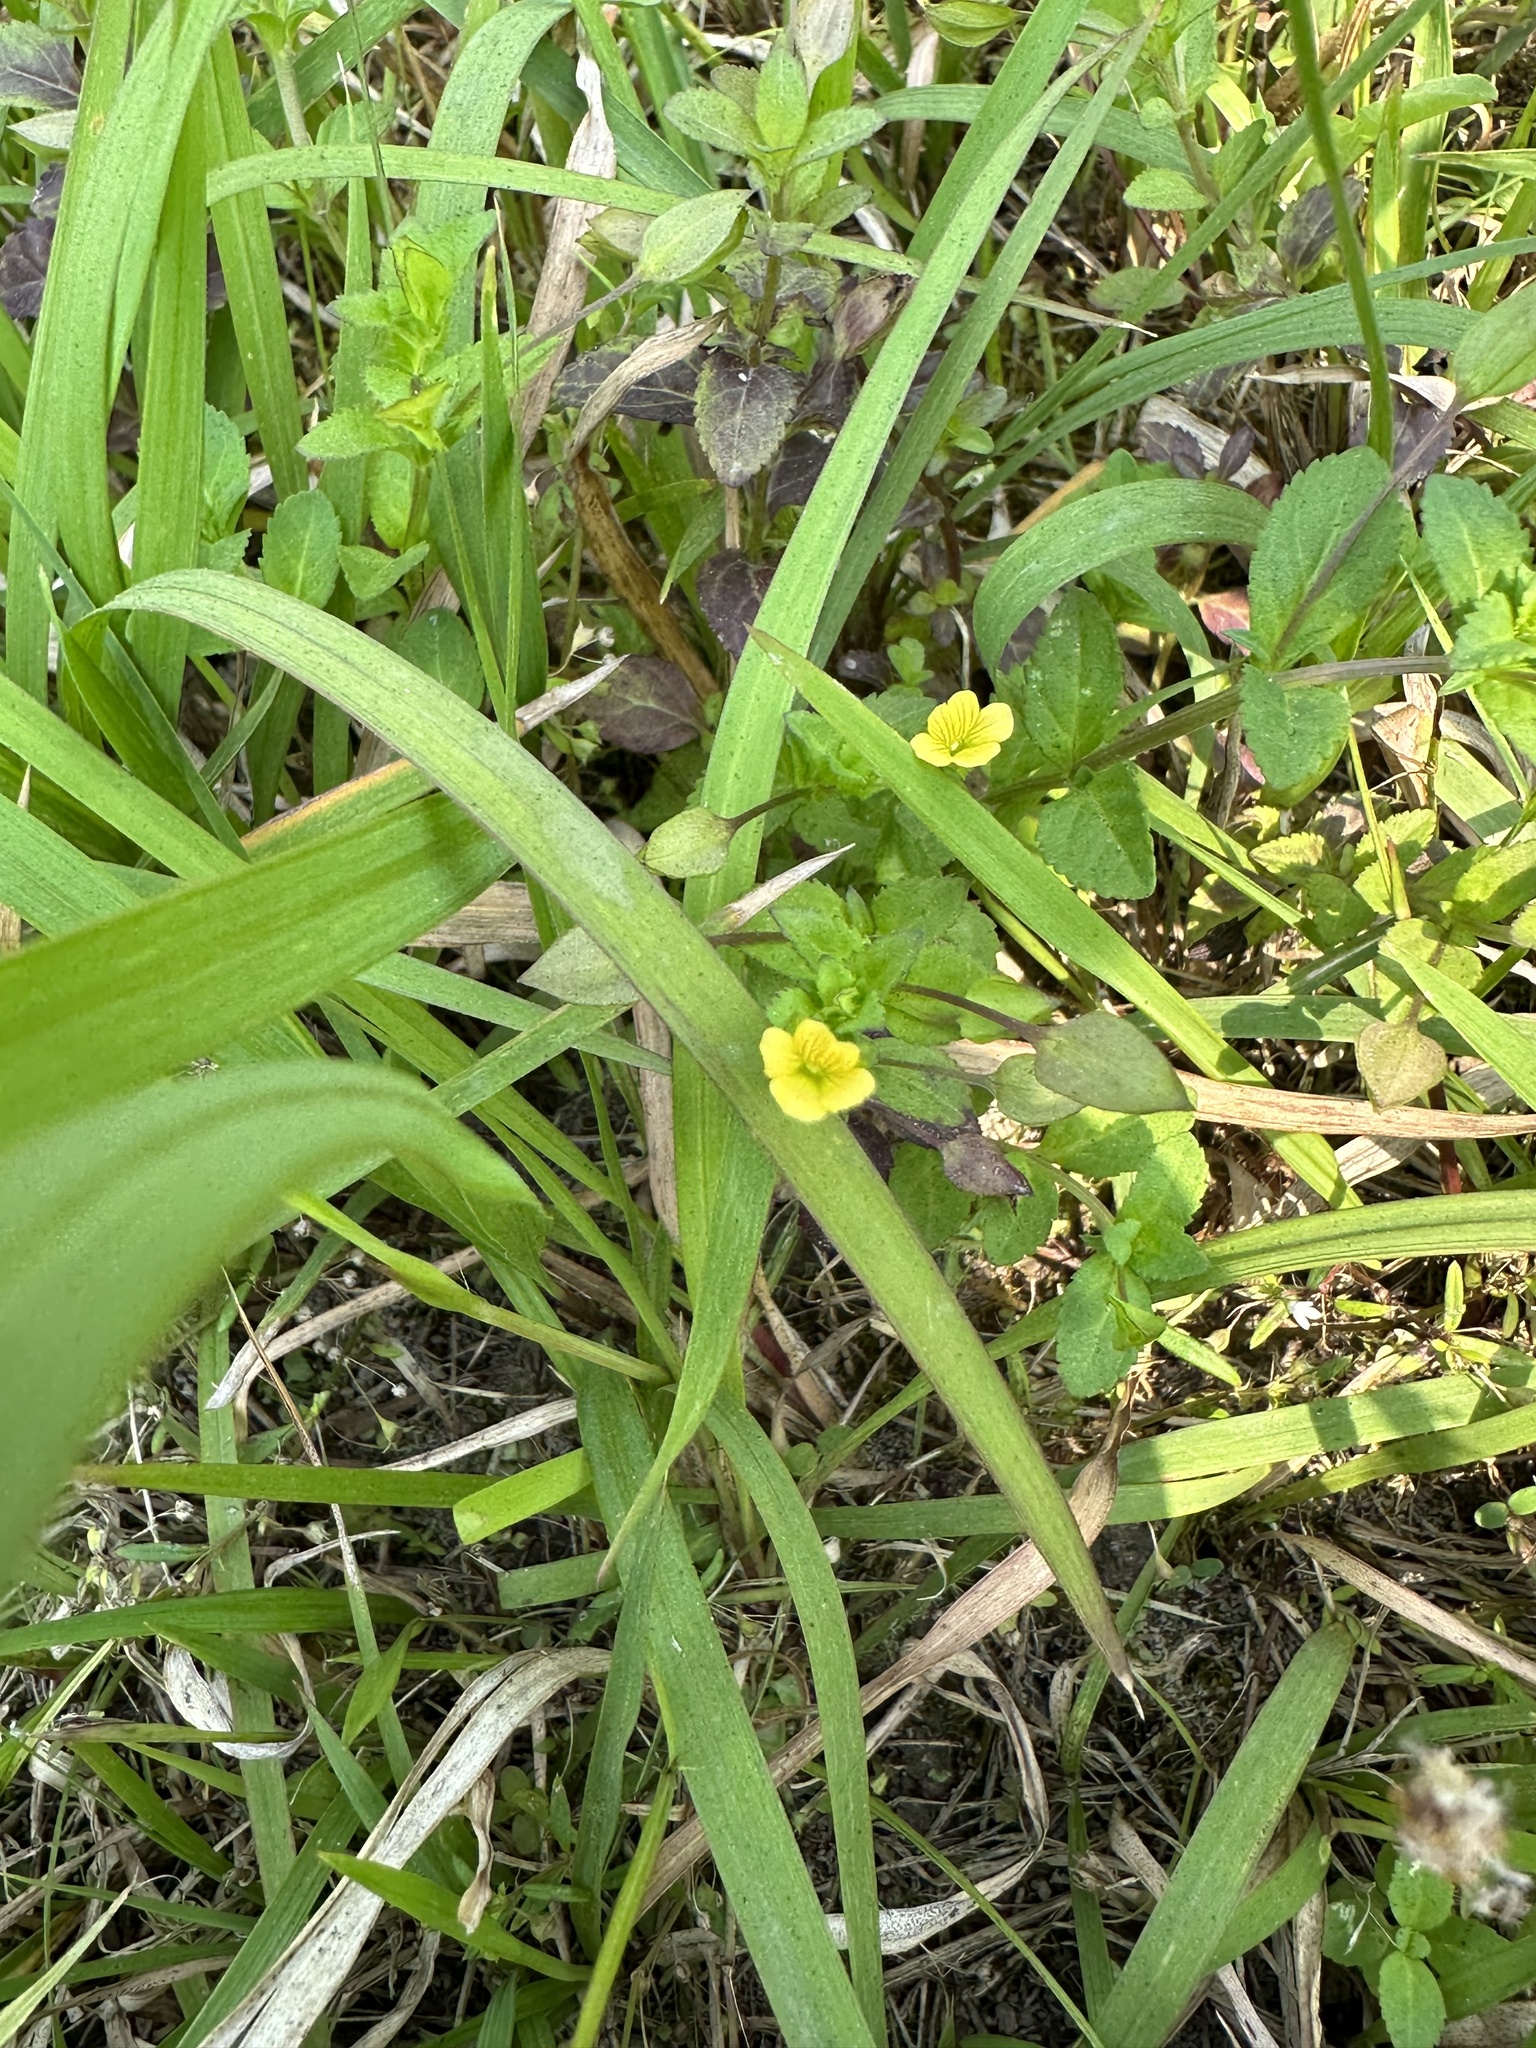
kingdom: Plantae
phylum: Tracheophyta
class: Magnoliopsida
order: Lamiales
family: Plantaginaceae
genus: Mecardonia
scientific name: Mecardonia procumbens
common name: Baby jump-up
